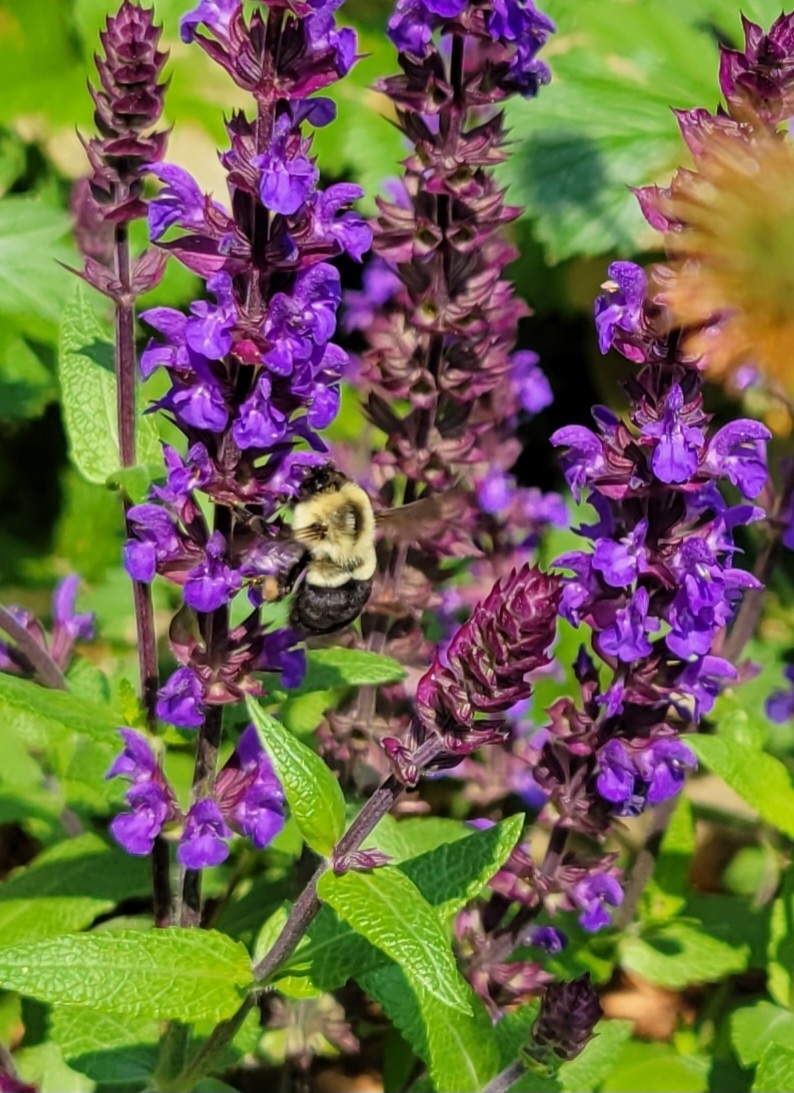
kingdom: Animalia
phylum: Arthropoda
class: Insecta
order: Hymenoptera
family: Apidae
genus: Bombus
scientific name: Bombus impatiens
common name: Common eastern bumble bee
